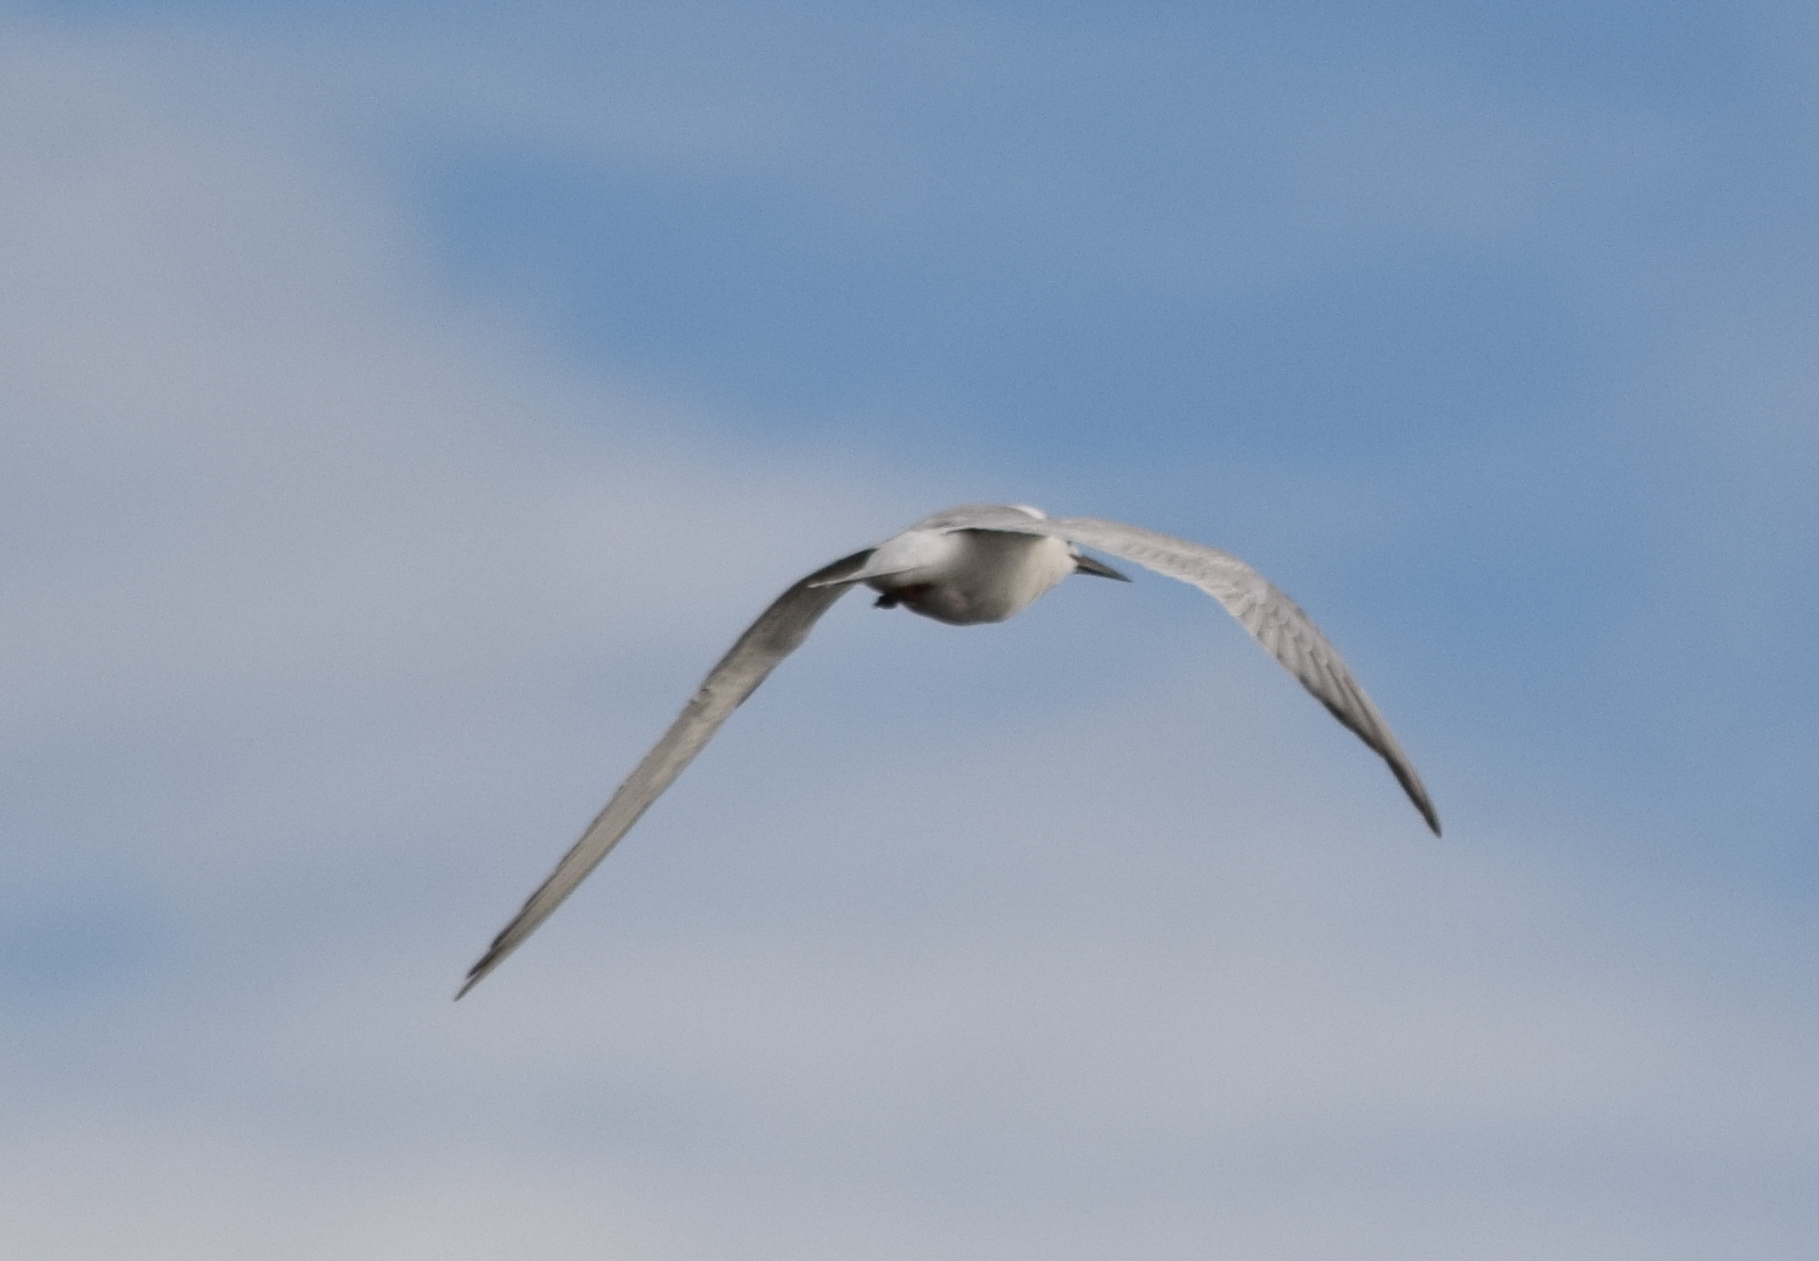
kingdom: Animalia
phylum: Chordata
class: Aves
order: Charadriiformes
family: Laridae
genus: Sterna
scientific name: Sterna forsteri
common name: Forster's tern
